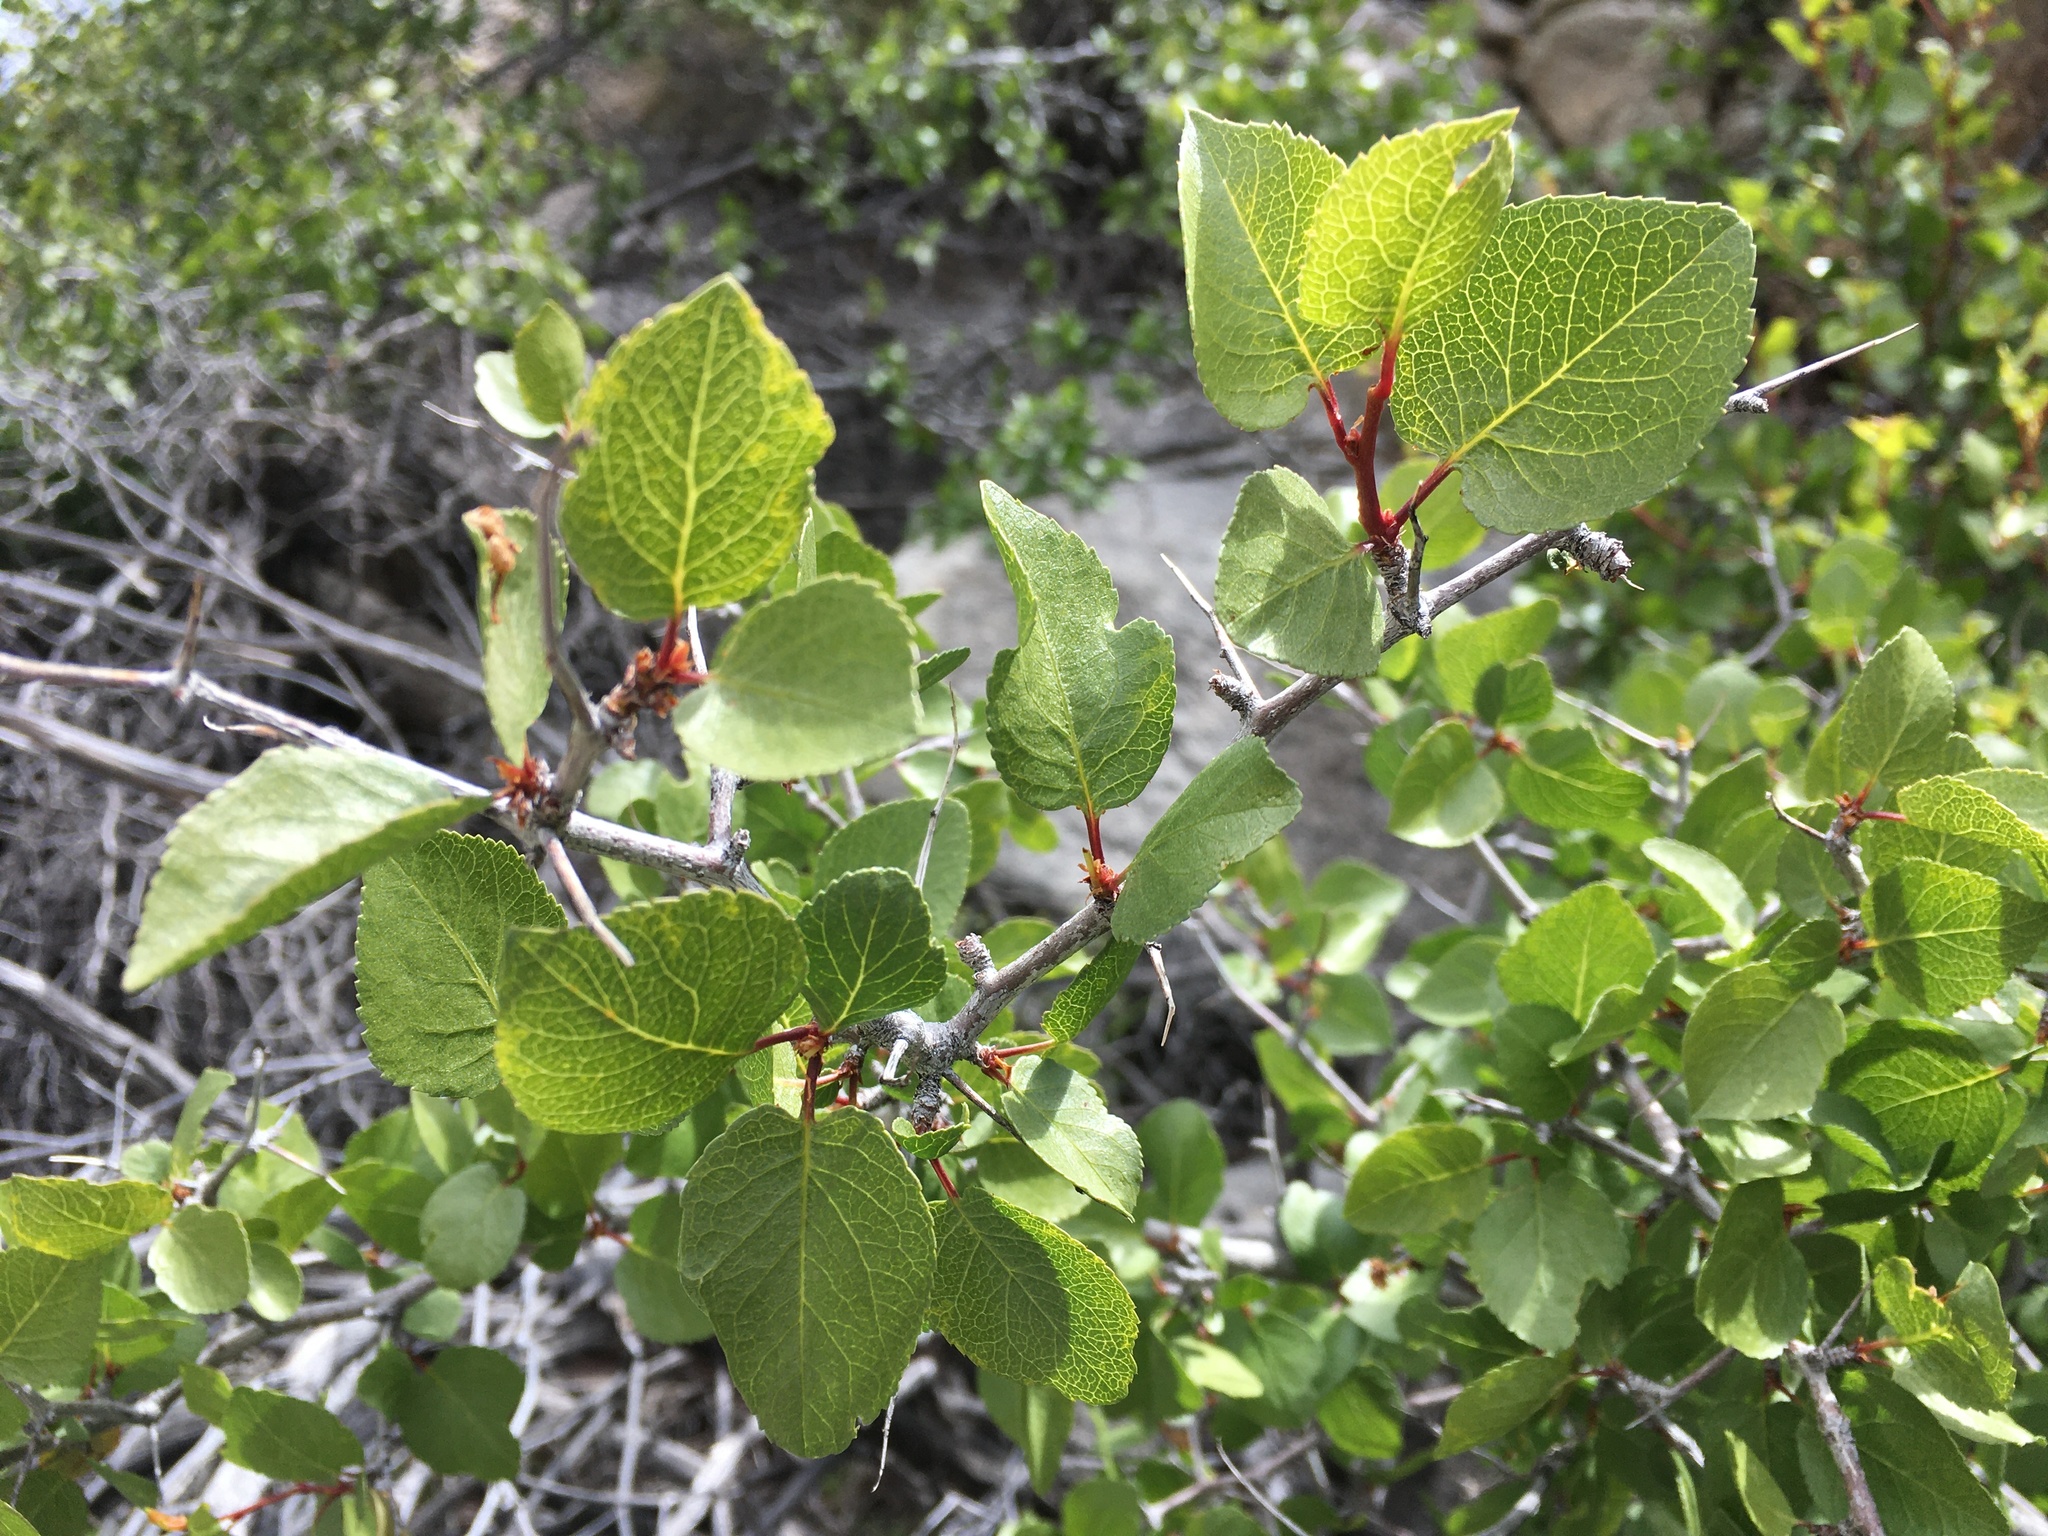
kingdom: Plantae
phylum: Tracheophyta
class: Magnoliopsida
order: Rosales
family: Rosaceae
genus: Prunus
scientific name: Prunus fremontii
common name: Desert apricot
